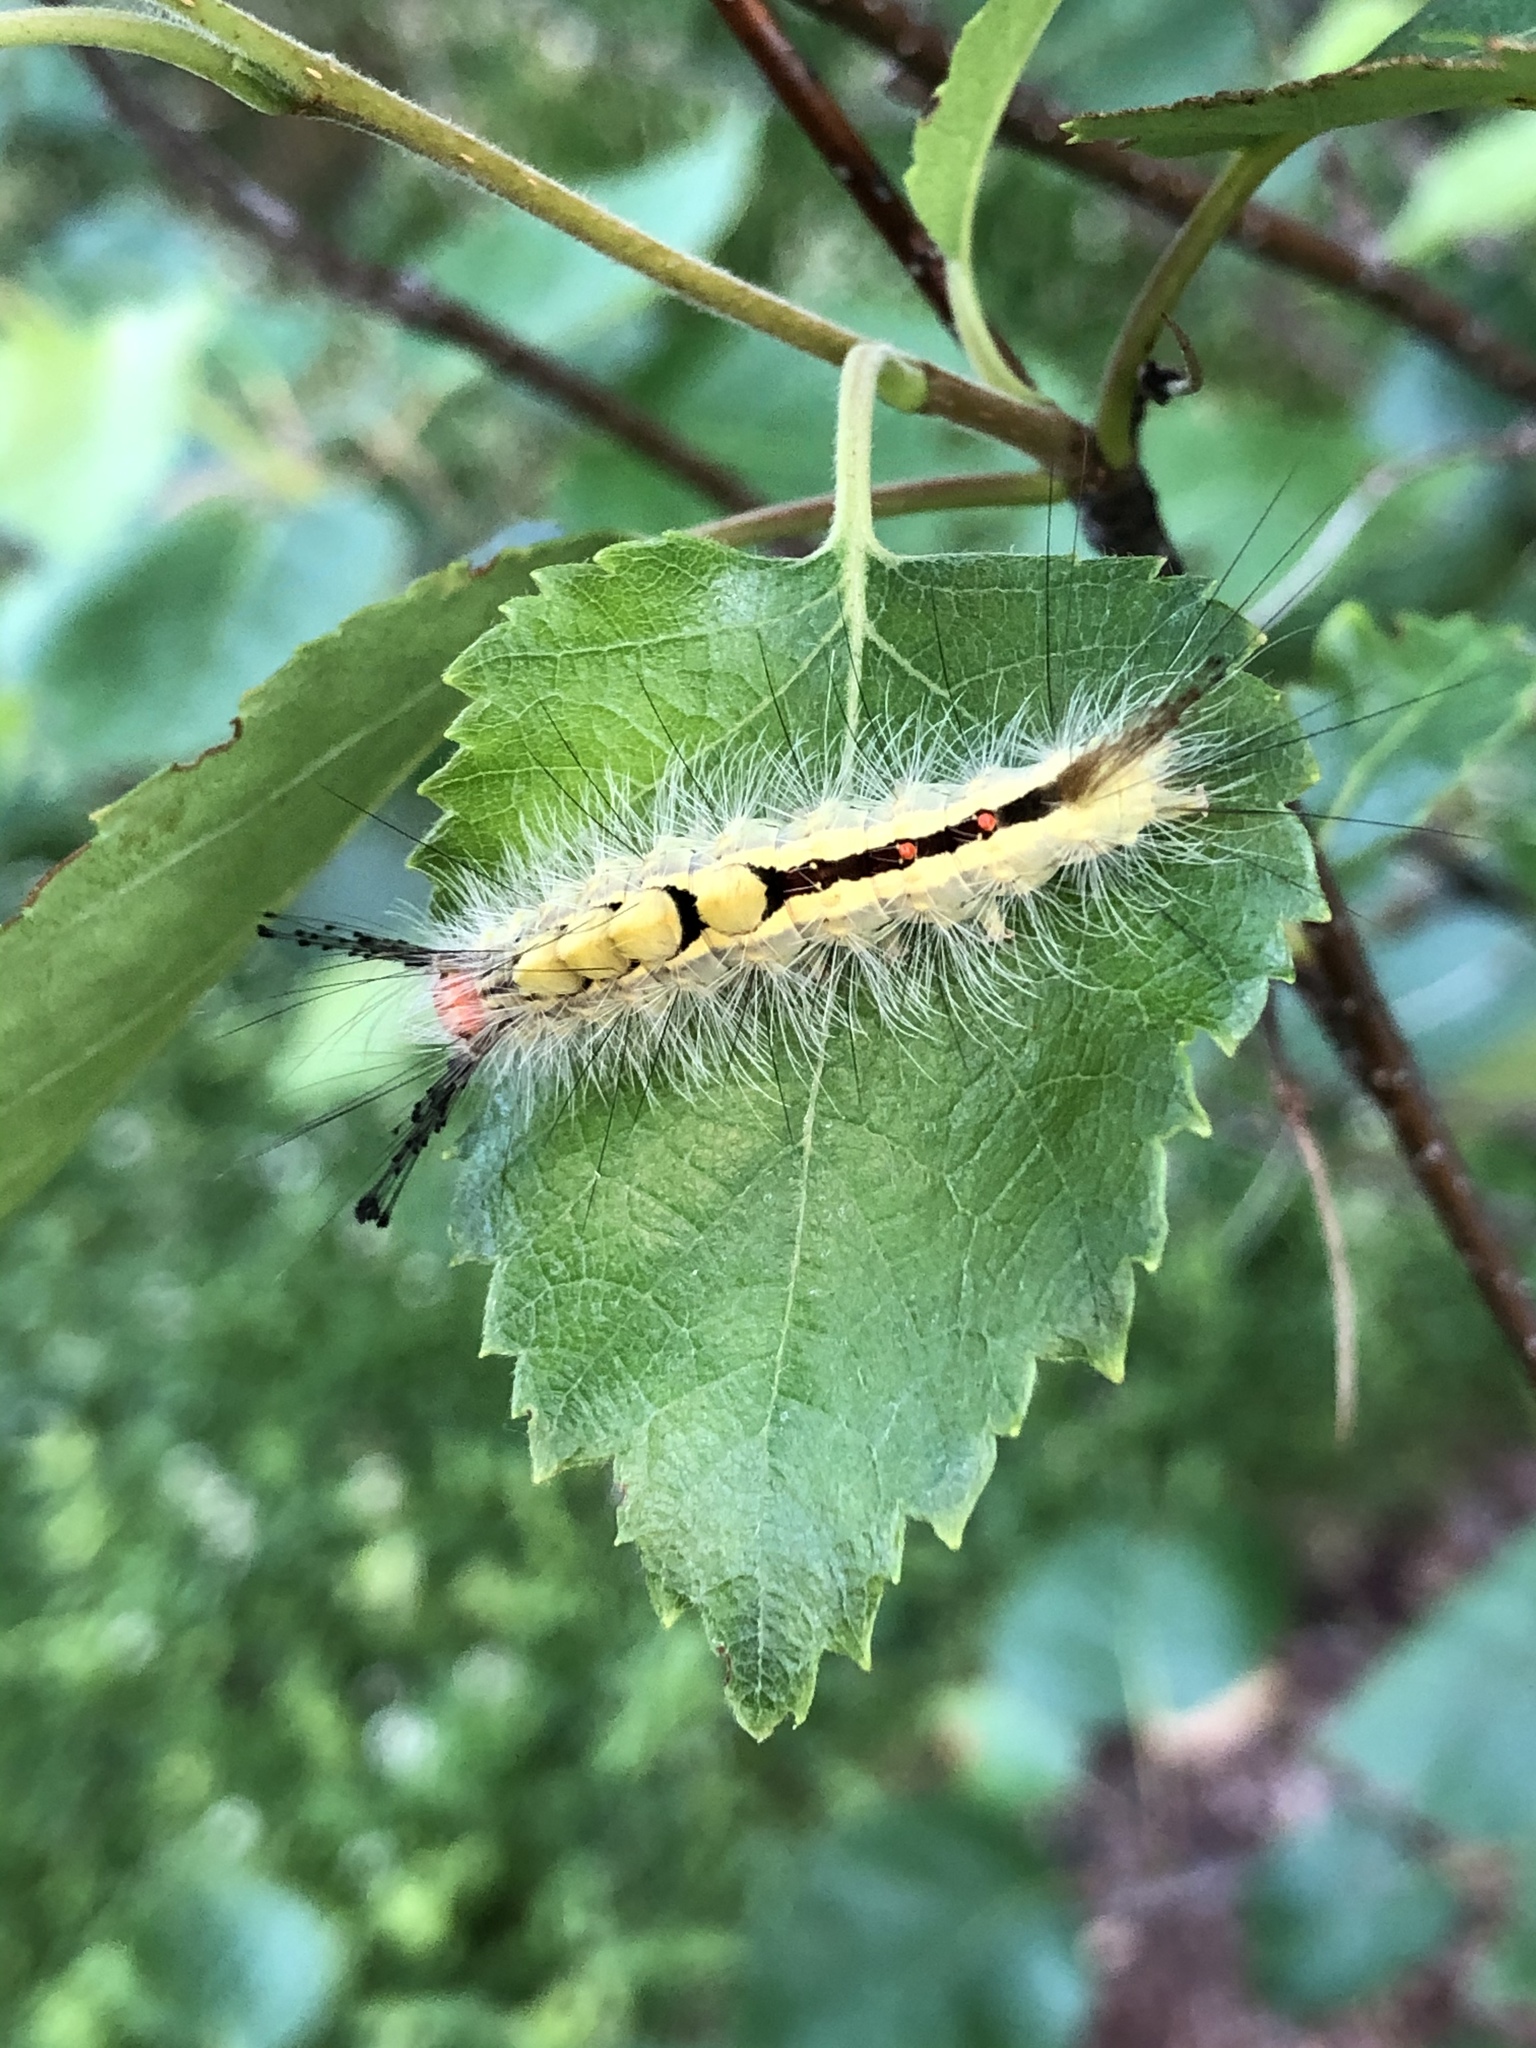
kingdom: Animalia
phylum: Arthropoda
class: Insecta
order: Lepidoptera
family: Erebidae
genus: Orgyia
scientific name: Orgyia leucostigma
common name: White-marked tussock moth
